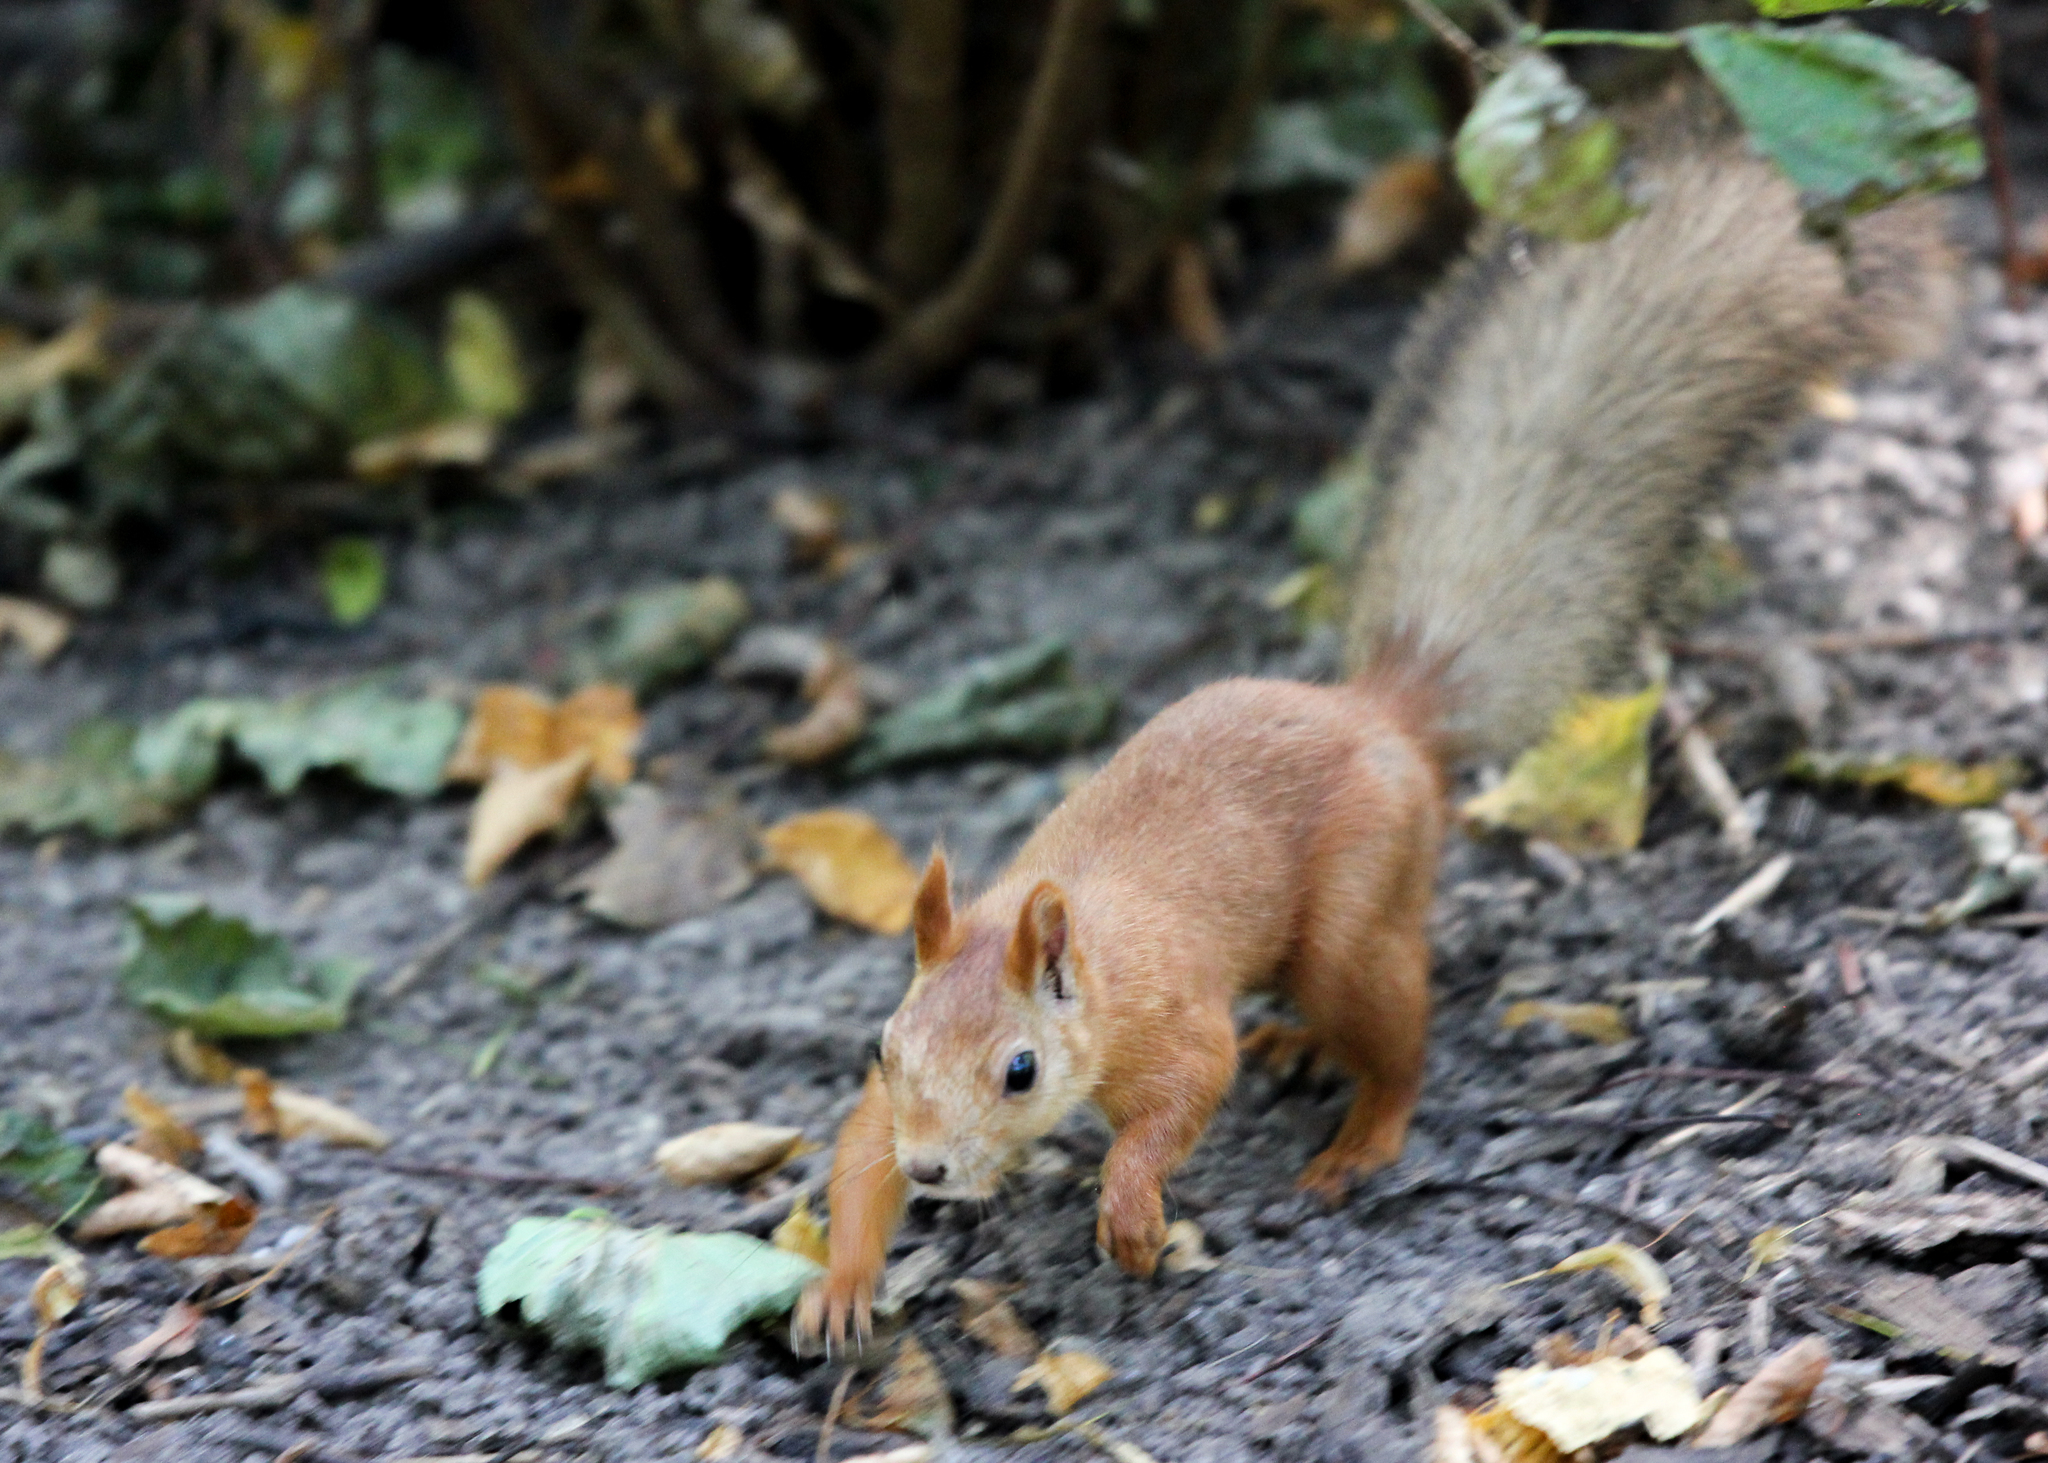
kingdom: Animalia
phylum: Chordata
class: Mammalia
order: Rodentia
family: Sciuridae
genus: Sciurus
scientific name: Sciurus vulgaris
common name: Eurasian red squirrel
